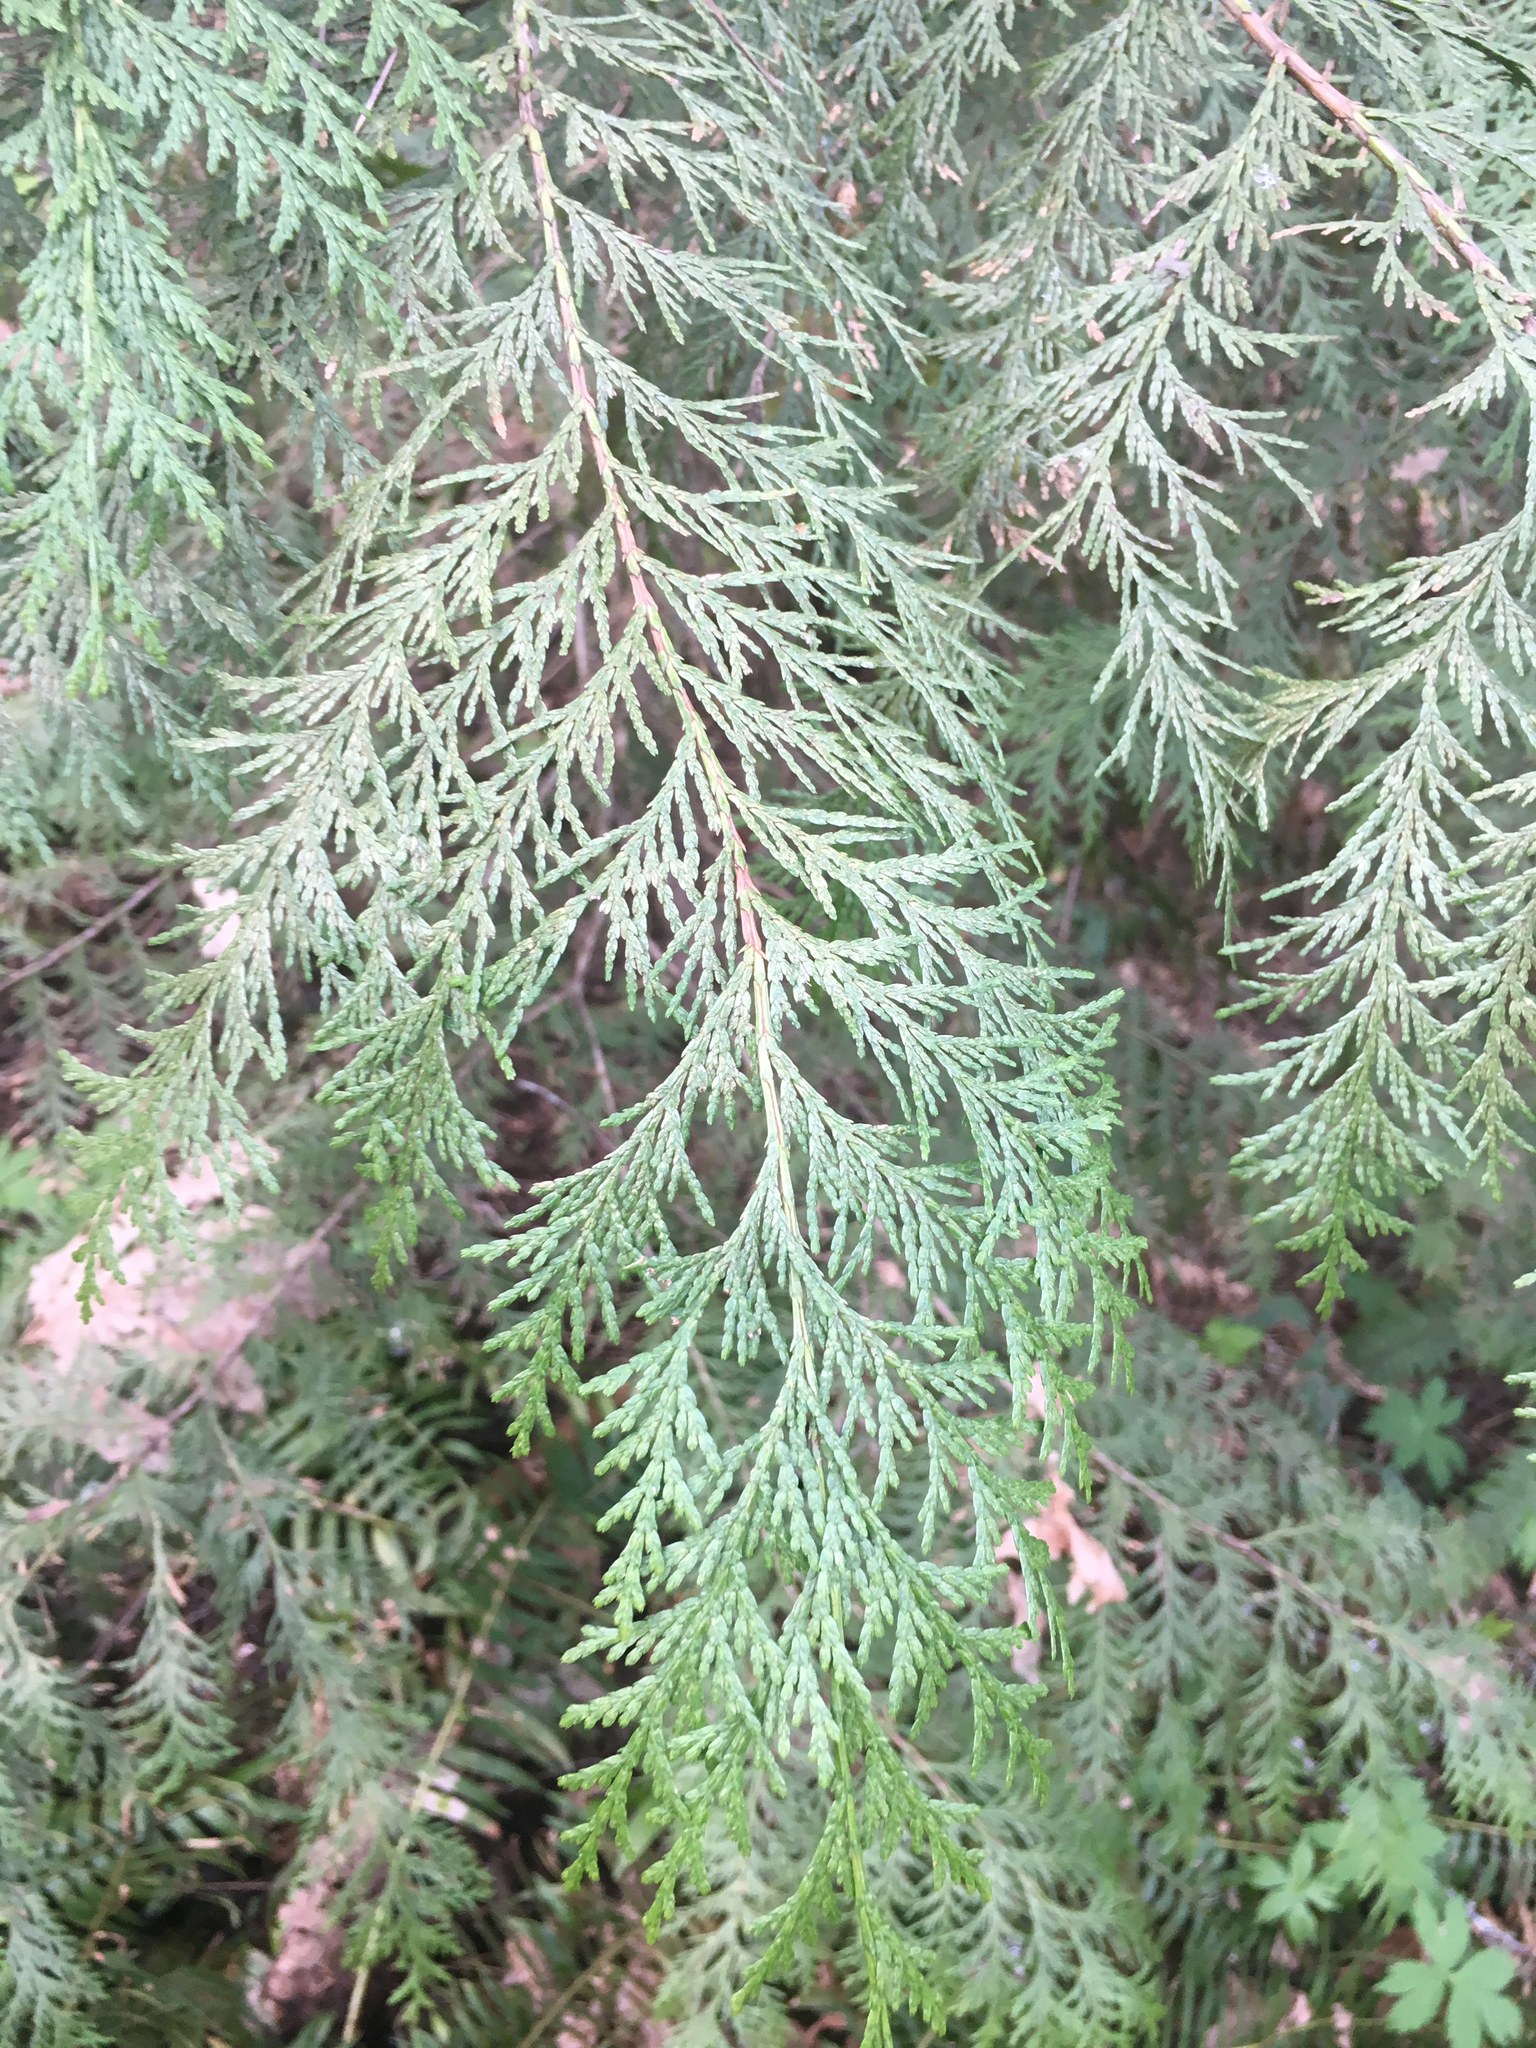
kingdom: Plantae
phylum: Tracheophyta
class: Pinopsida
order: Pinales
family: Cupressaceae
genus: Thuja
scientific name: Thuja plicata
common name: Western red-cedar
